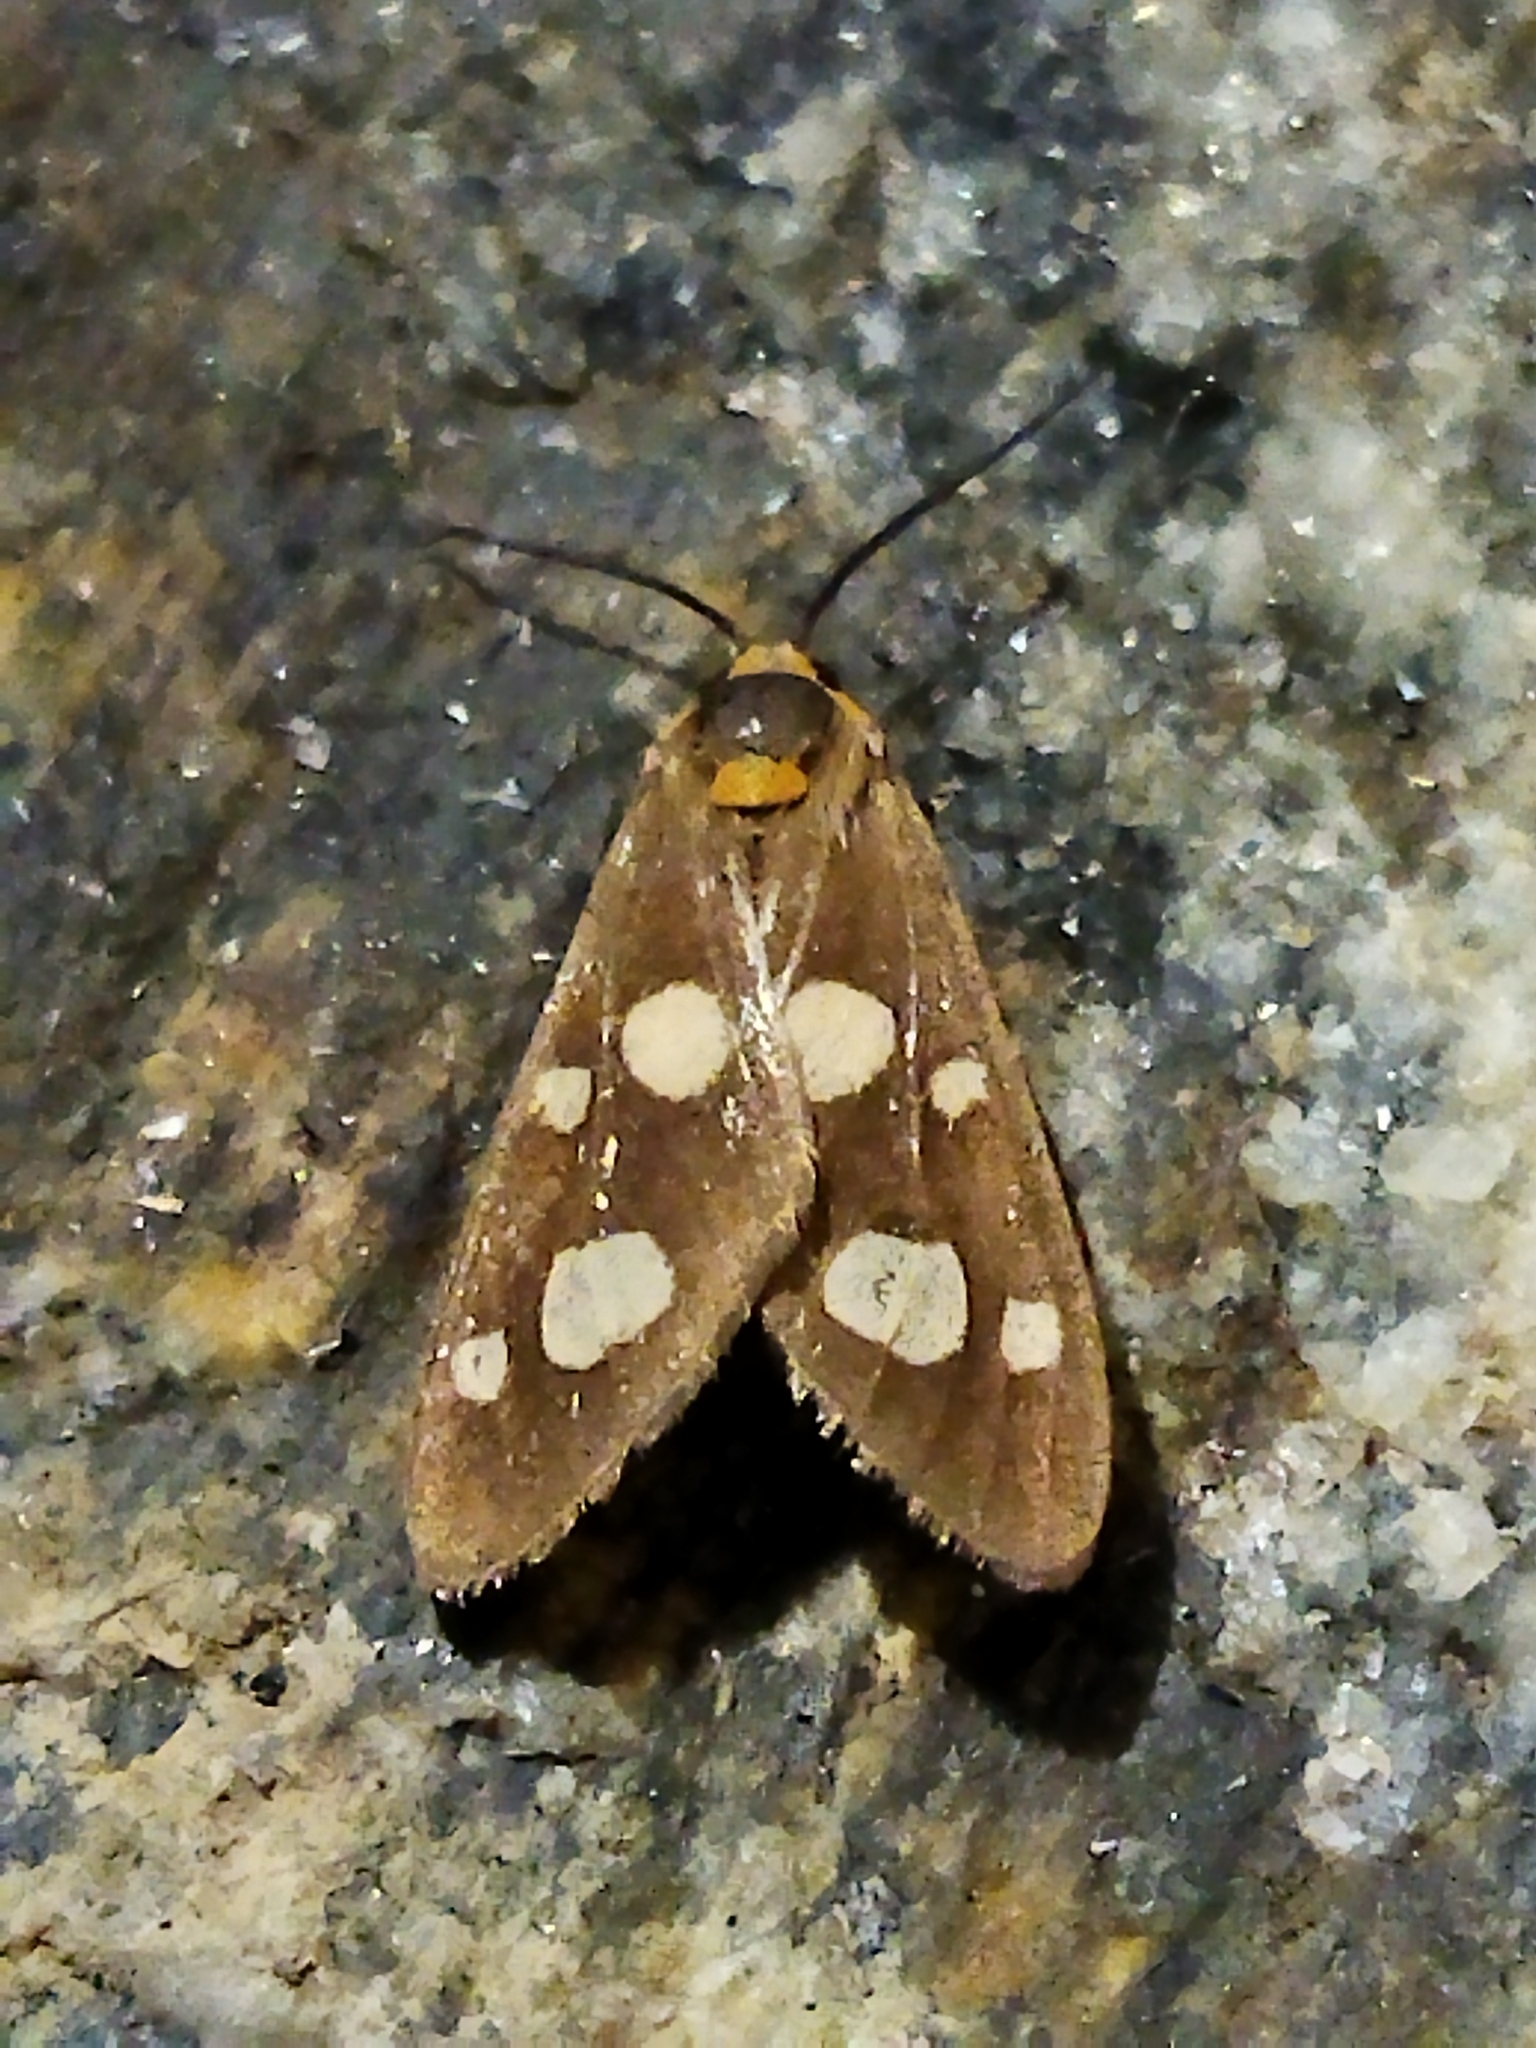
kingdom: Animalia
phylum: Arthropoda
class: Insecta
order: Lepidoptera
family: Erebidae
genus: Dysauxes
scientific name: Dysauxes punctata
